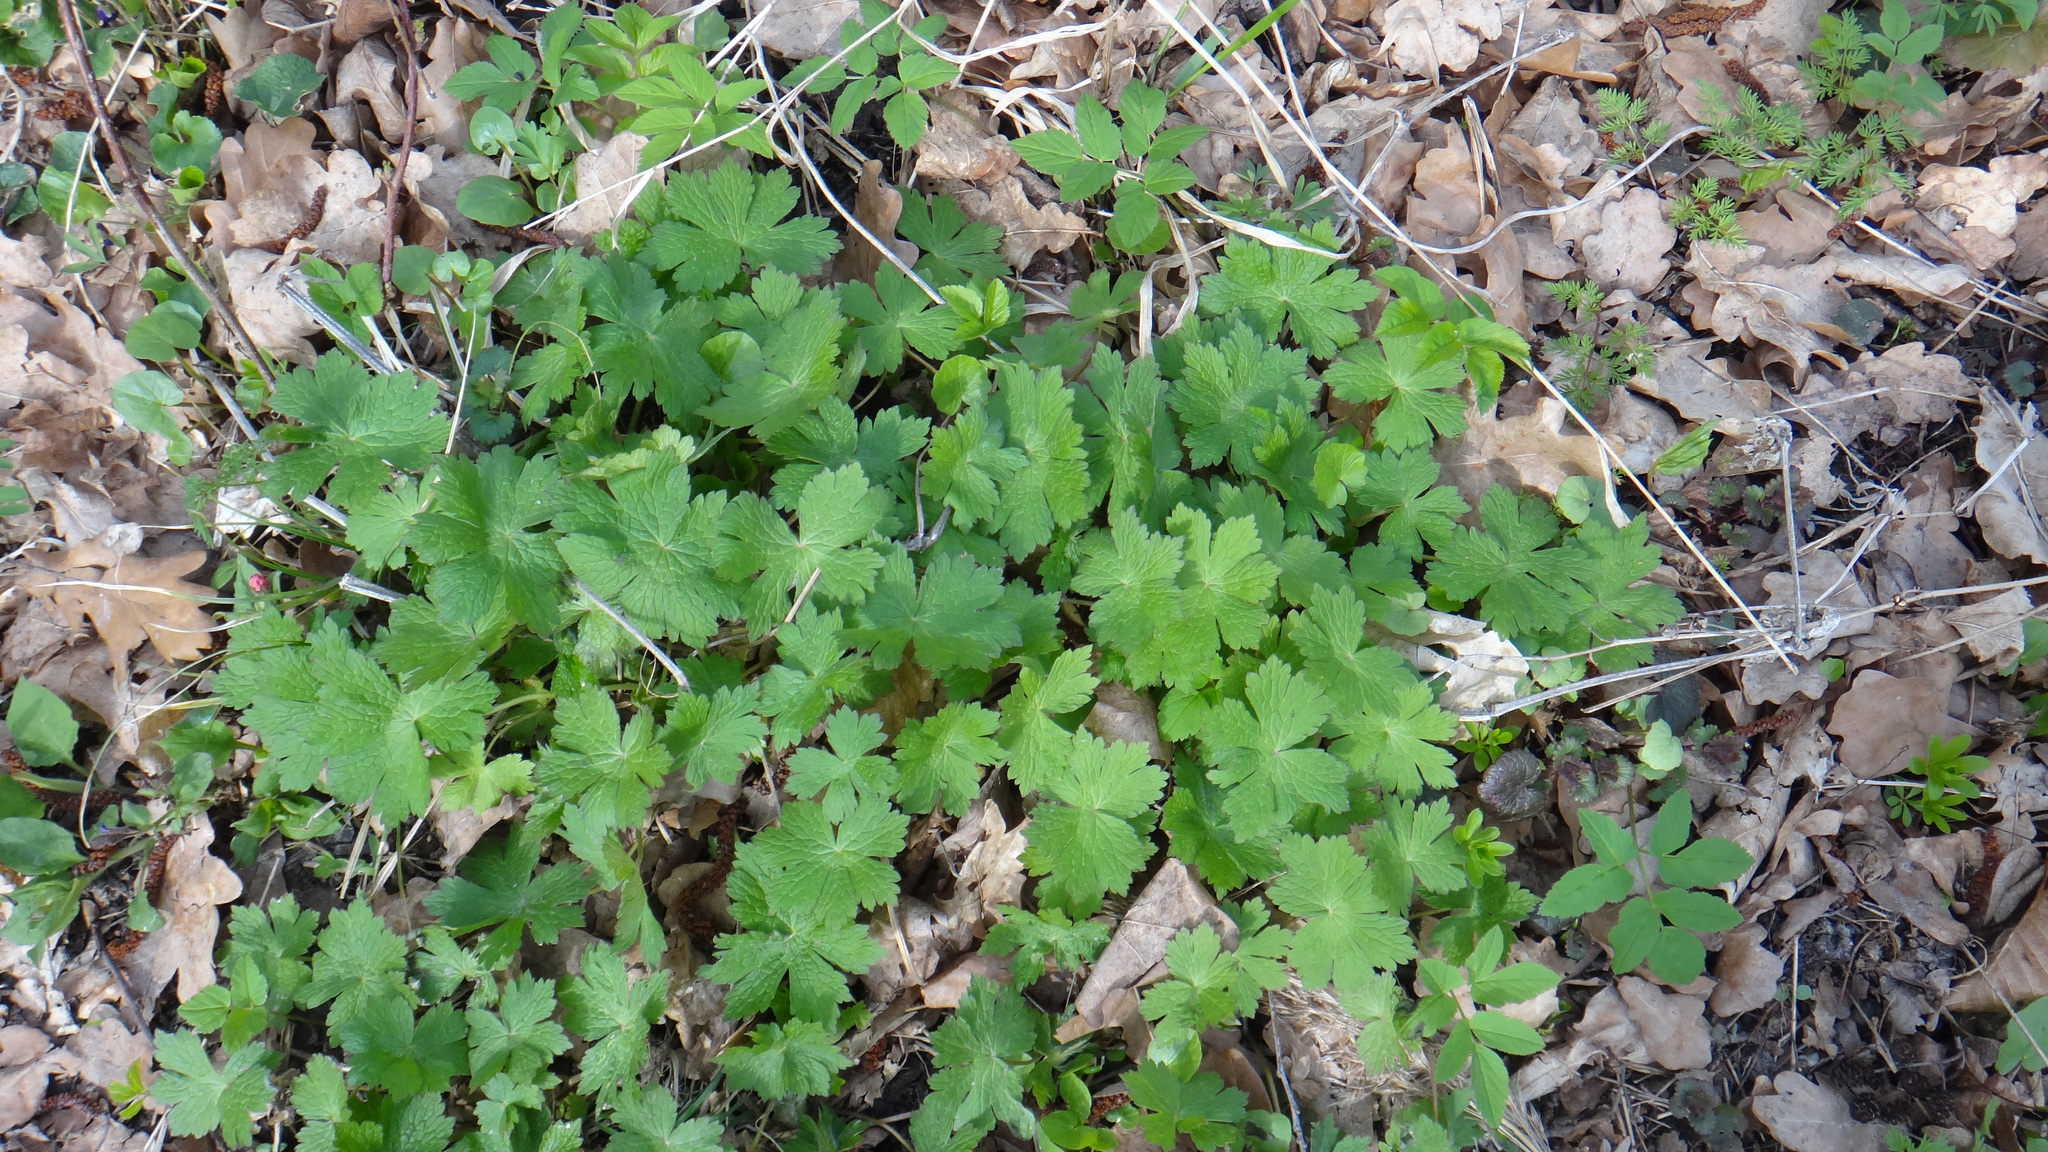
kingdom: Plantae
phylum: Tracheophyta
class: Magnoliopsida
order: Geraniales
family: Geraniaceae
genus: Geranium
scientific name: Geranium phaeum
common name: Dusky crane's-bill
